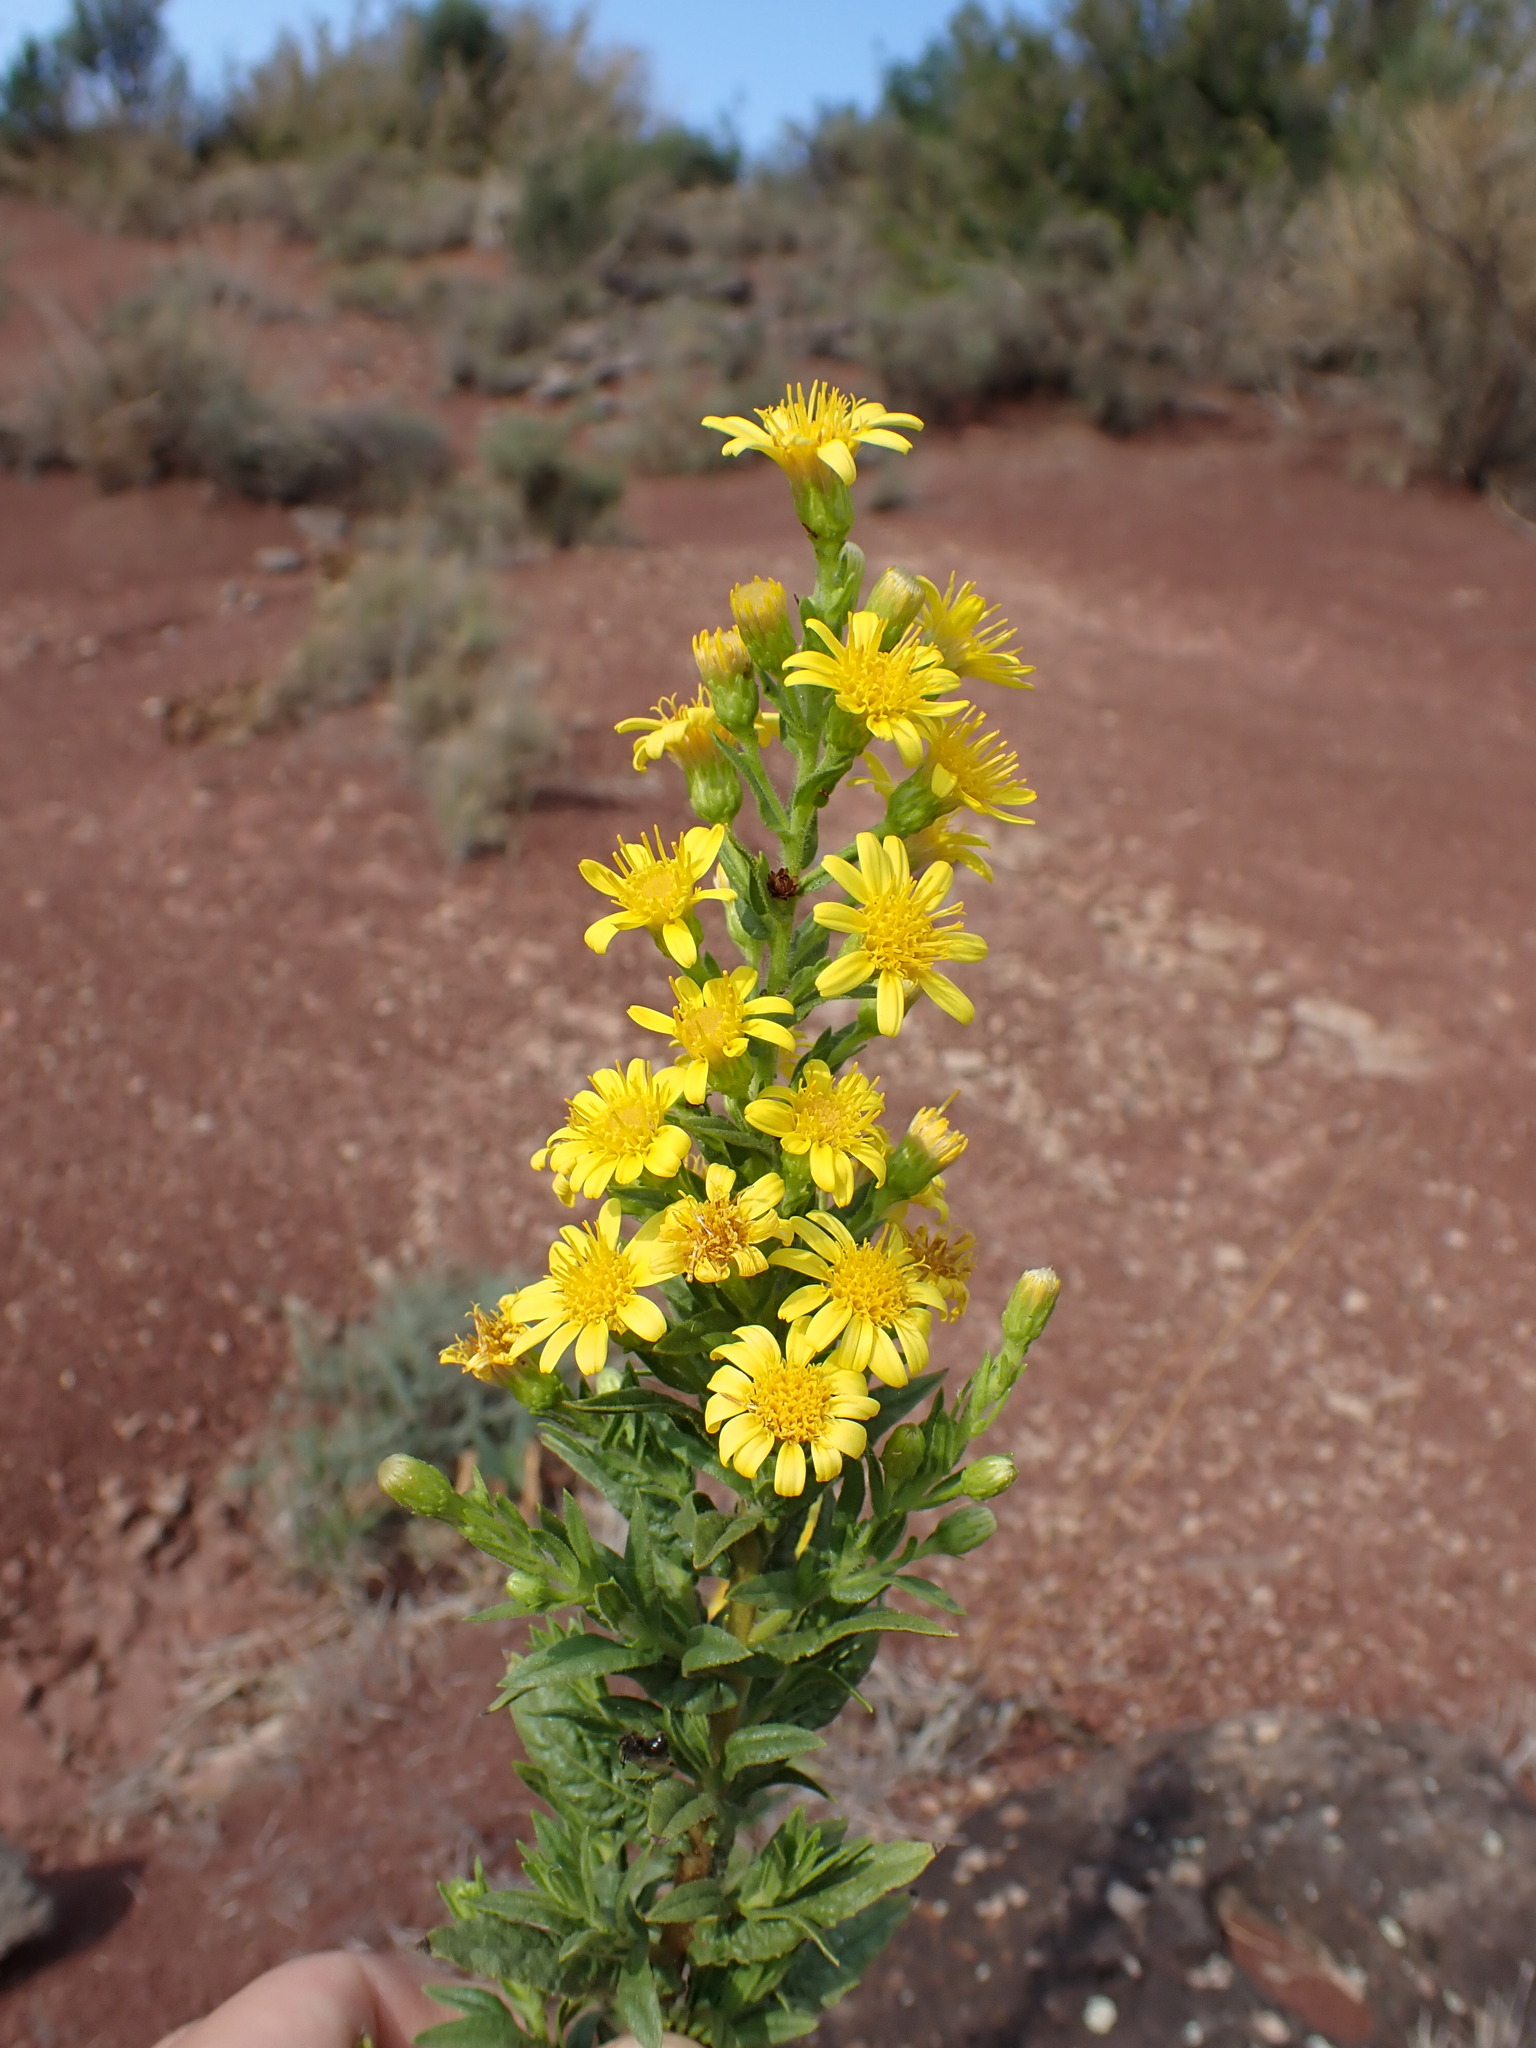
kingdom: Plantae
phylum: Tracheophyta
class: Magnoliopsida
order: Asterales
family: Asteraceae
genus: Dittrichia
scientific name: Dittrichia viscosa
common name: Woody fleabane
